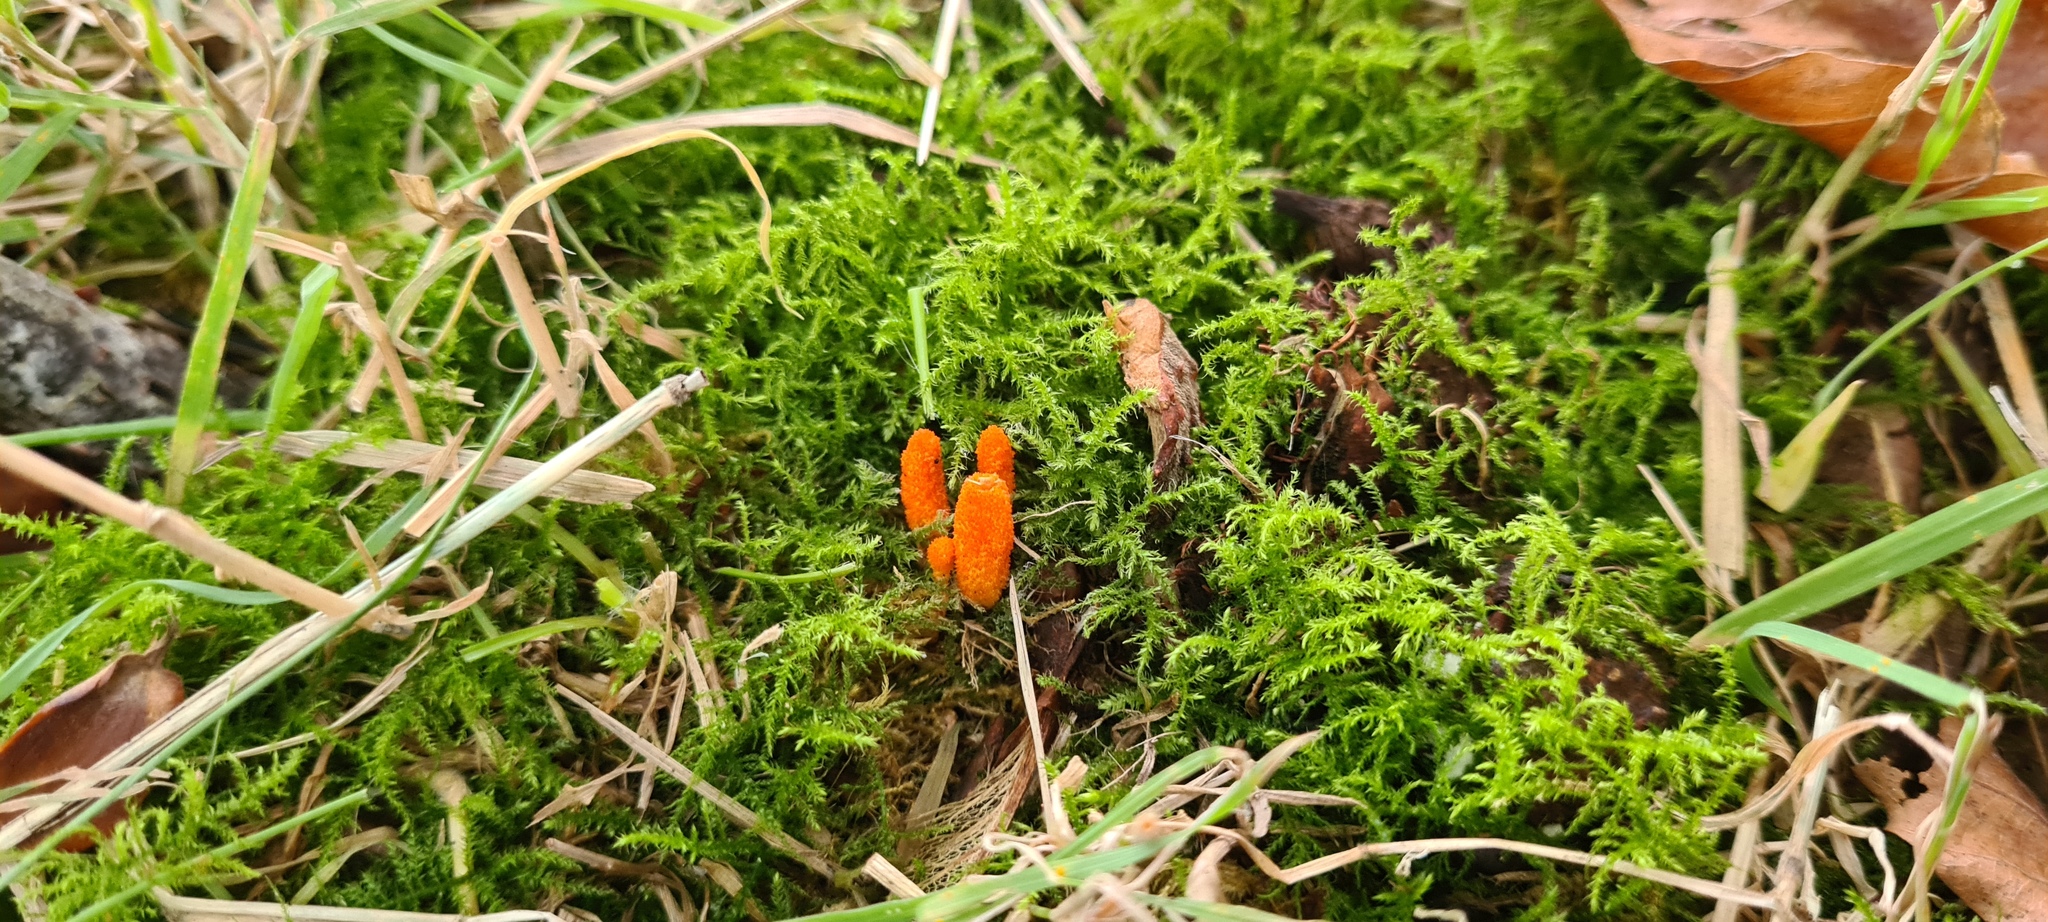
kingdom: Fungi
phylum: Ascomycota
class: Sordariomycetes
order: Hypocreales
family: Cordycipitaceae
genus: Cordyceps
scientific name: Cordyceps militaris
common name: Scarlet caterpillar fungus
